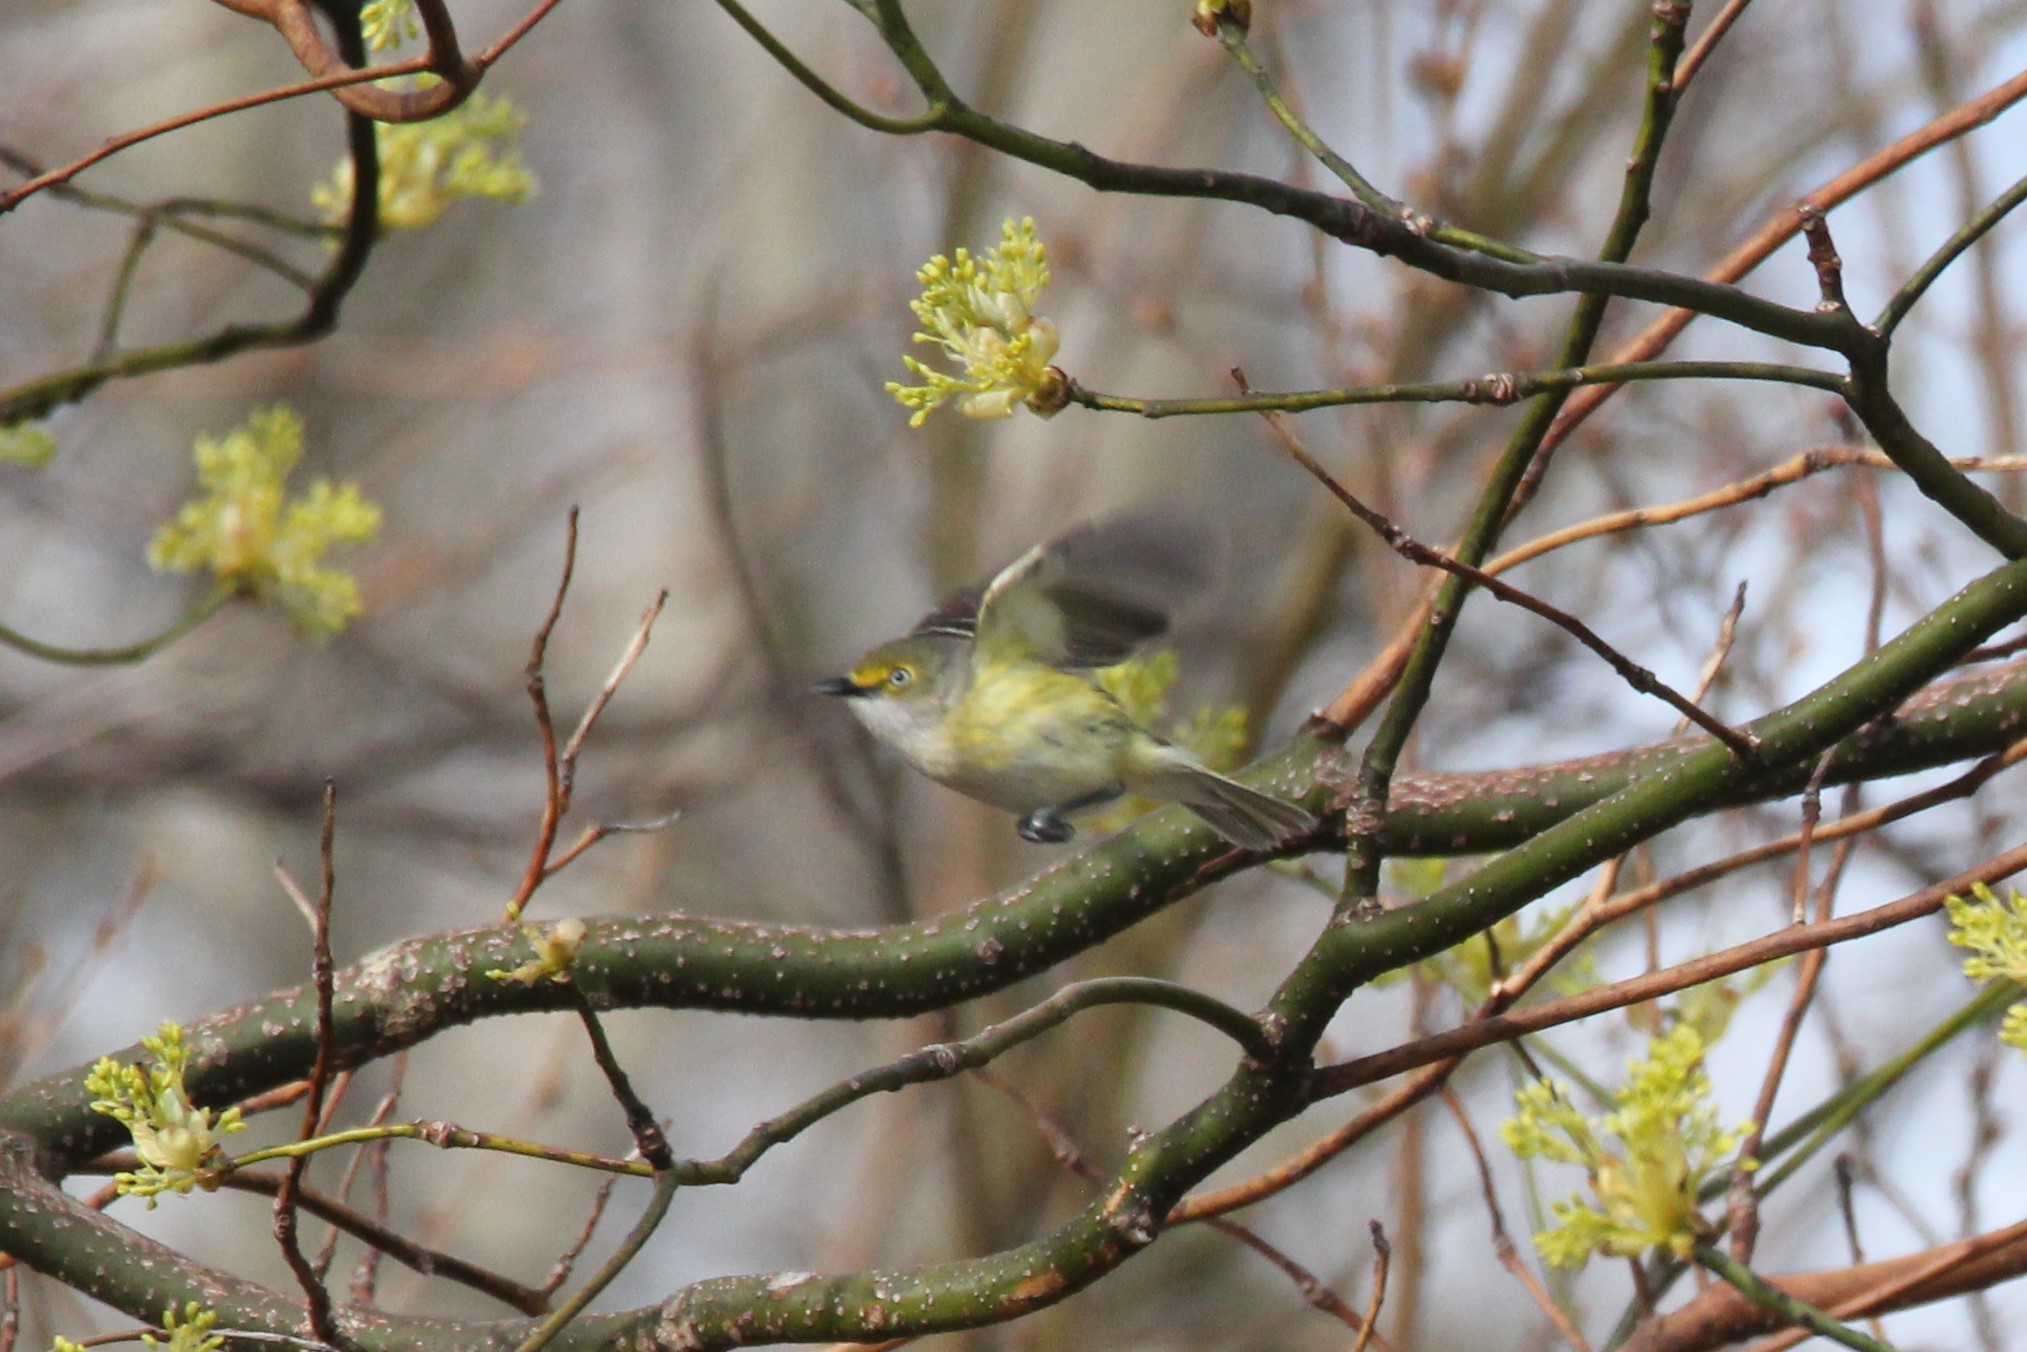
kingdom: Animalia
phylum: Chordata
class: Aves
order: Passeriformes
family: Vireonidae
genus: Vireo
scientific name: Vireo griseus
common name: White-eyed vireo
